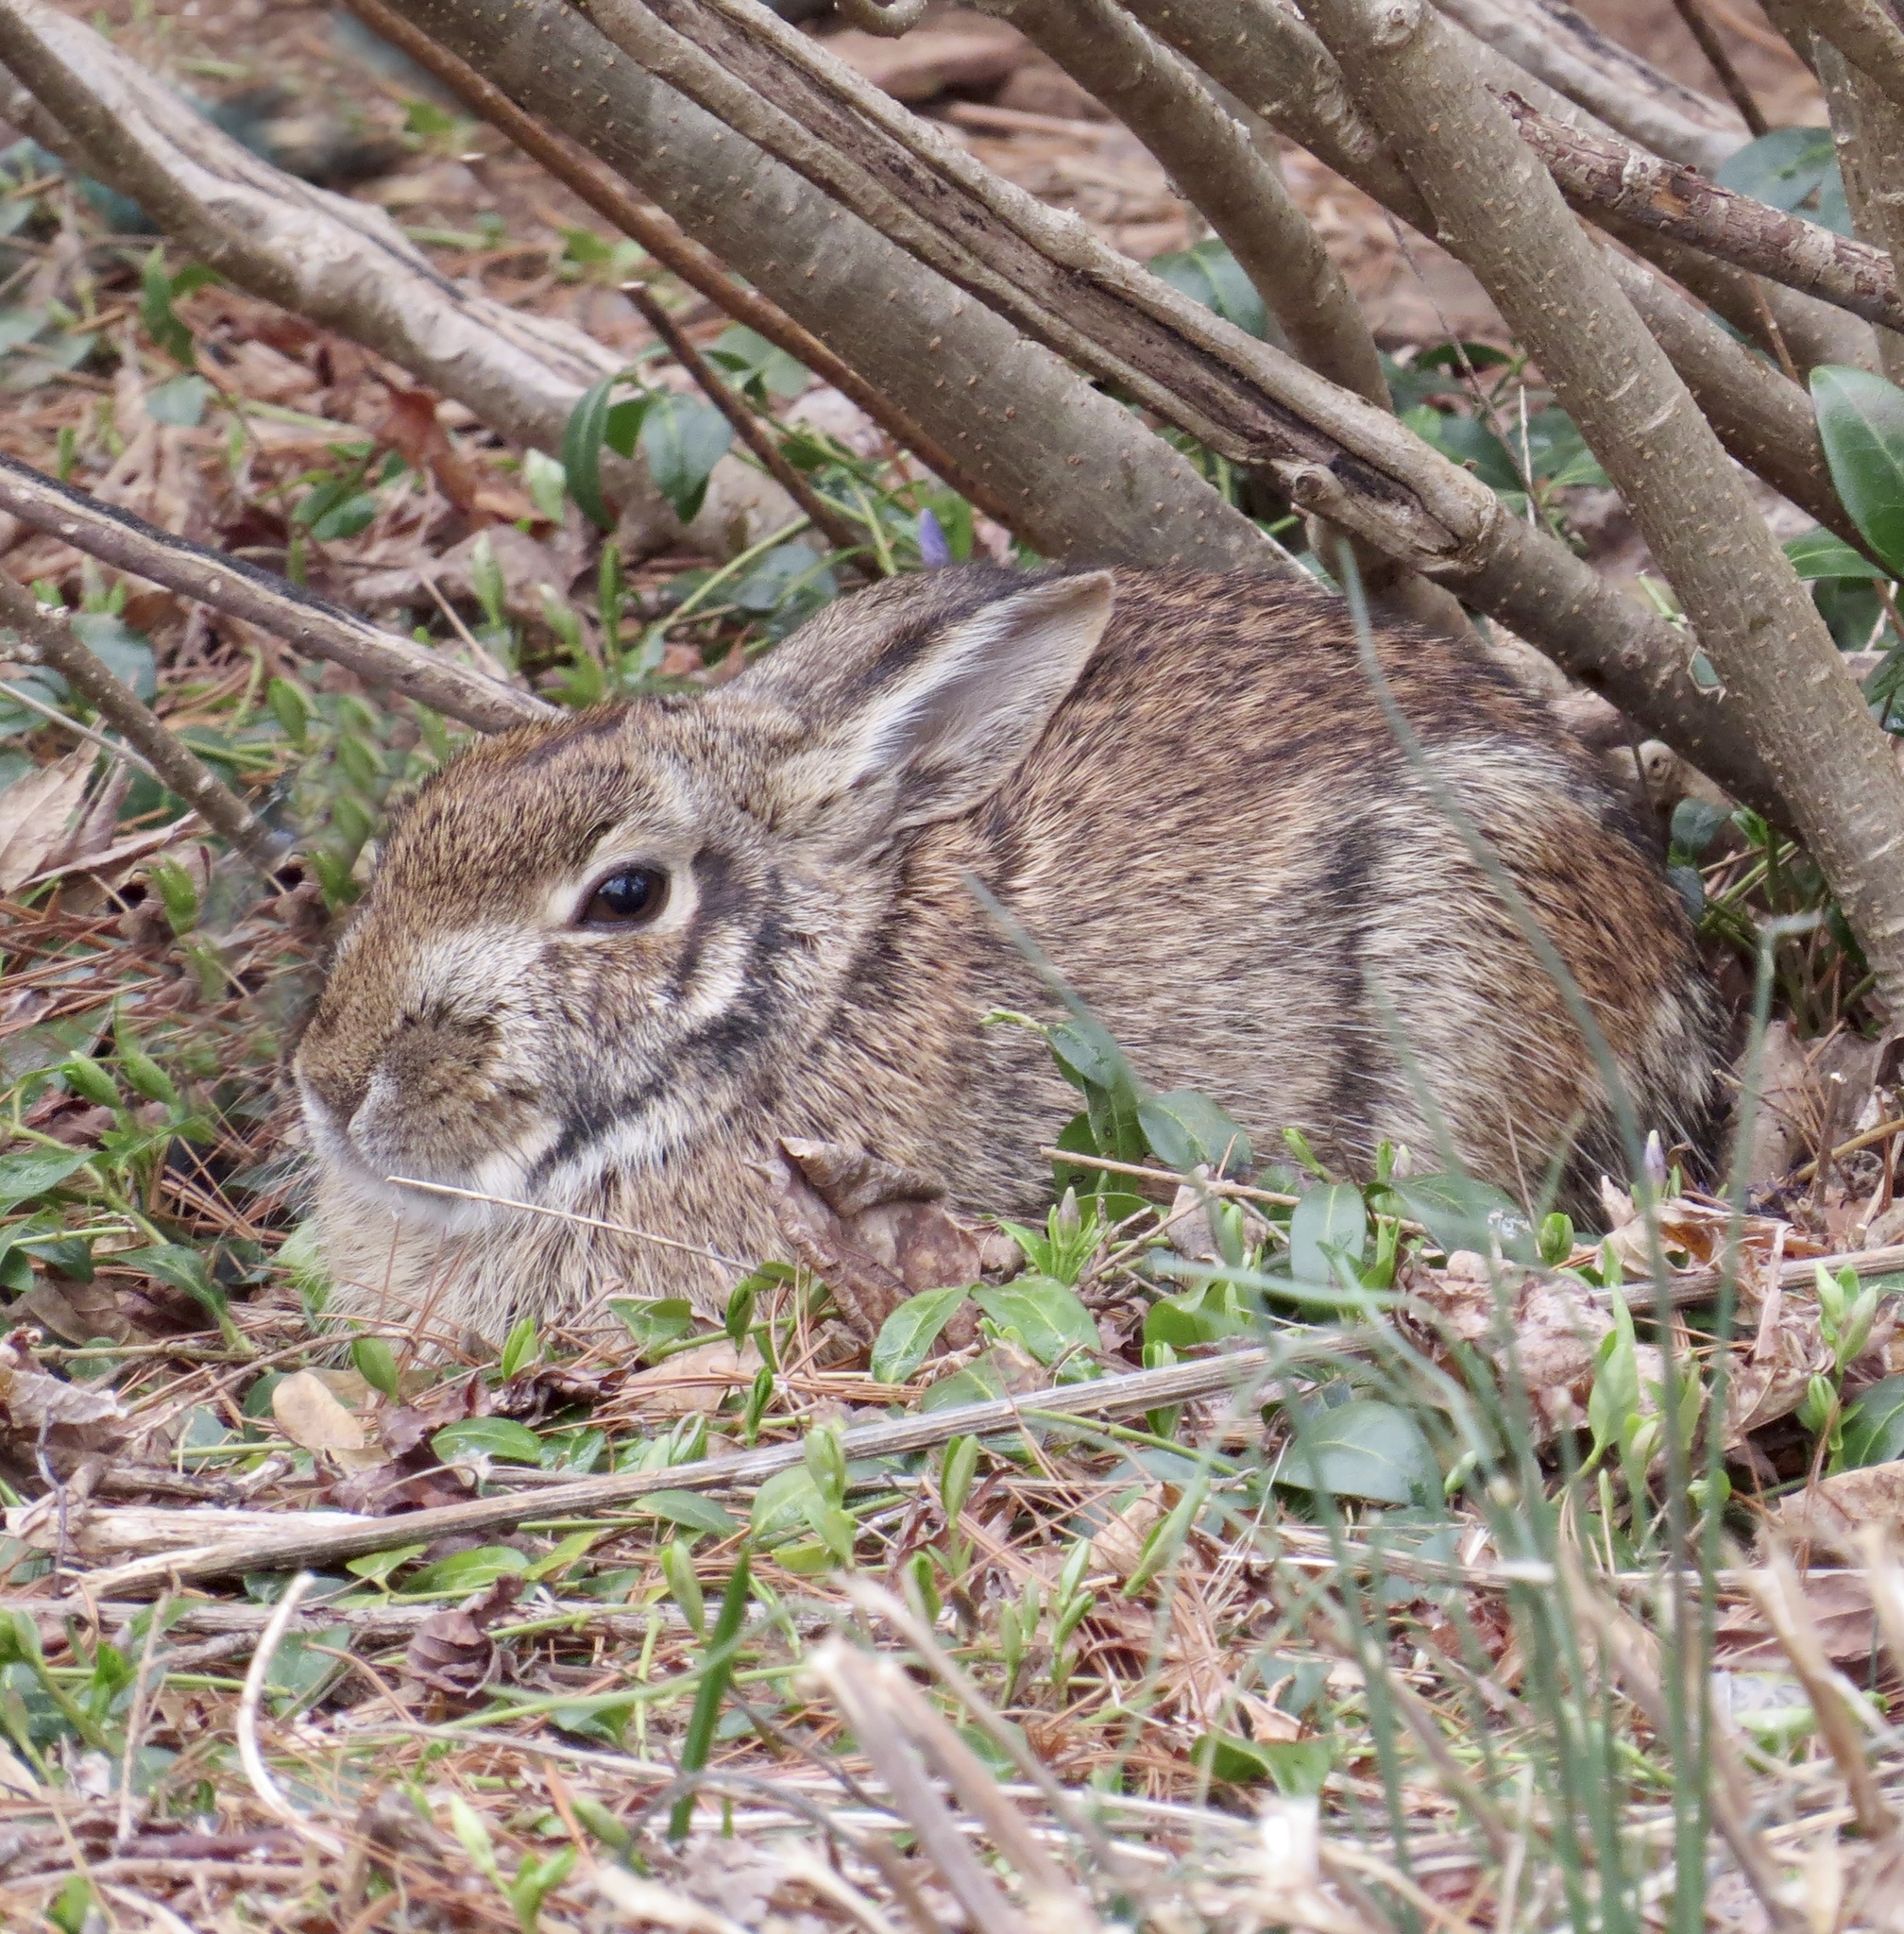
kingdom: Animalia
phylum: Chordata
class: Mammalia
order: Lagomorpha
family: Leporidae
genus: Sylvilagus
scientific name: Sylvilagus floridanus
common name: Eastern cottontail
